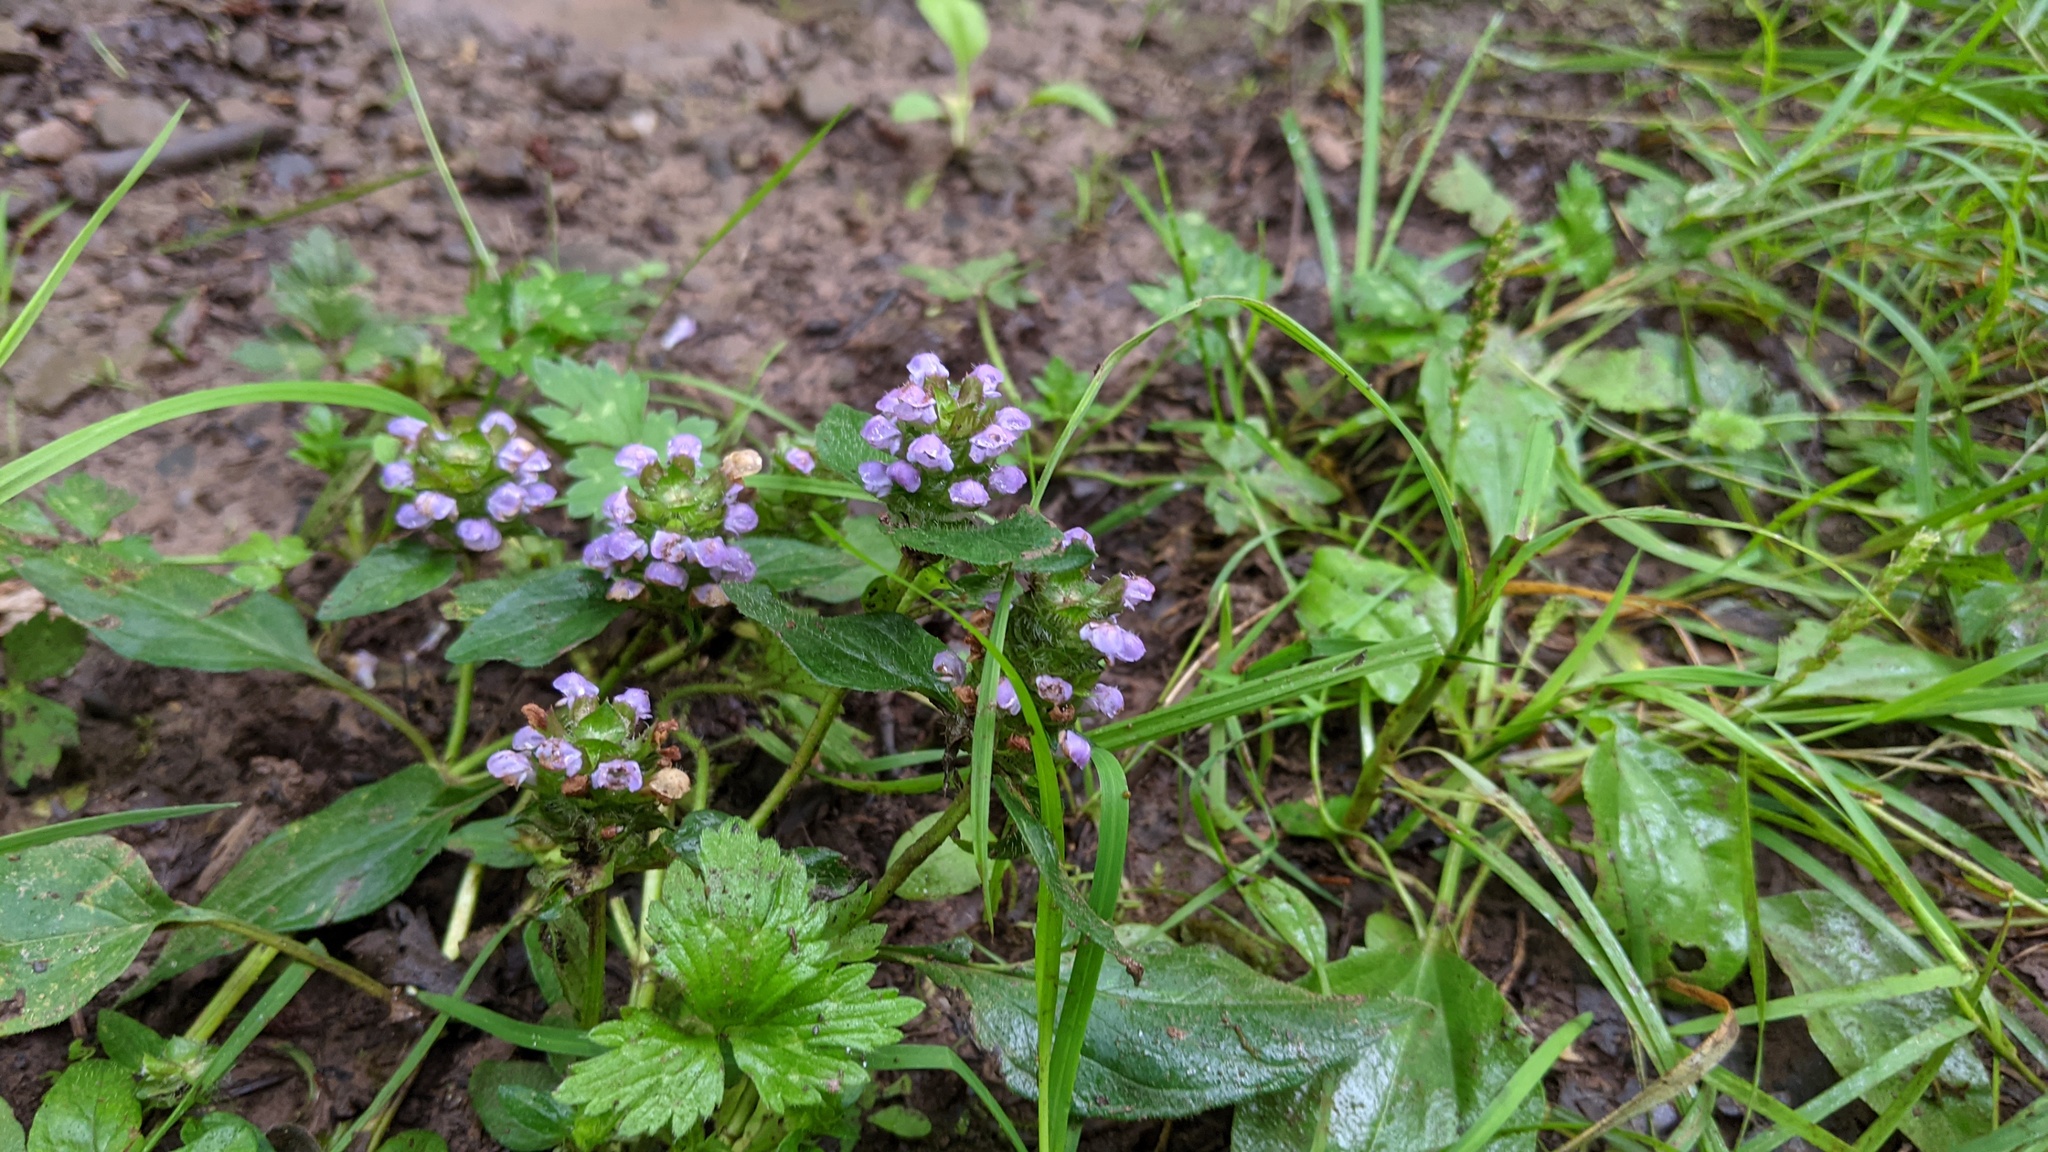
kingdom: Plantae
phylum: Tracheophyta
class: Magnoliopsida
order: Lamiales
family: Lamiaceae
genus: Prunella
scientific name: Prunella vulgaris
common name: Heal-all
